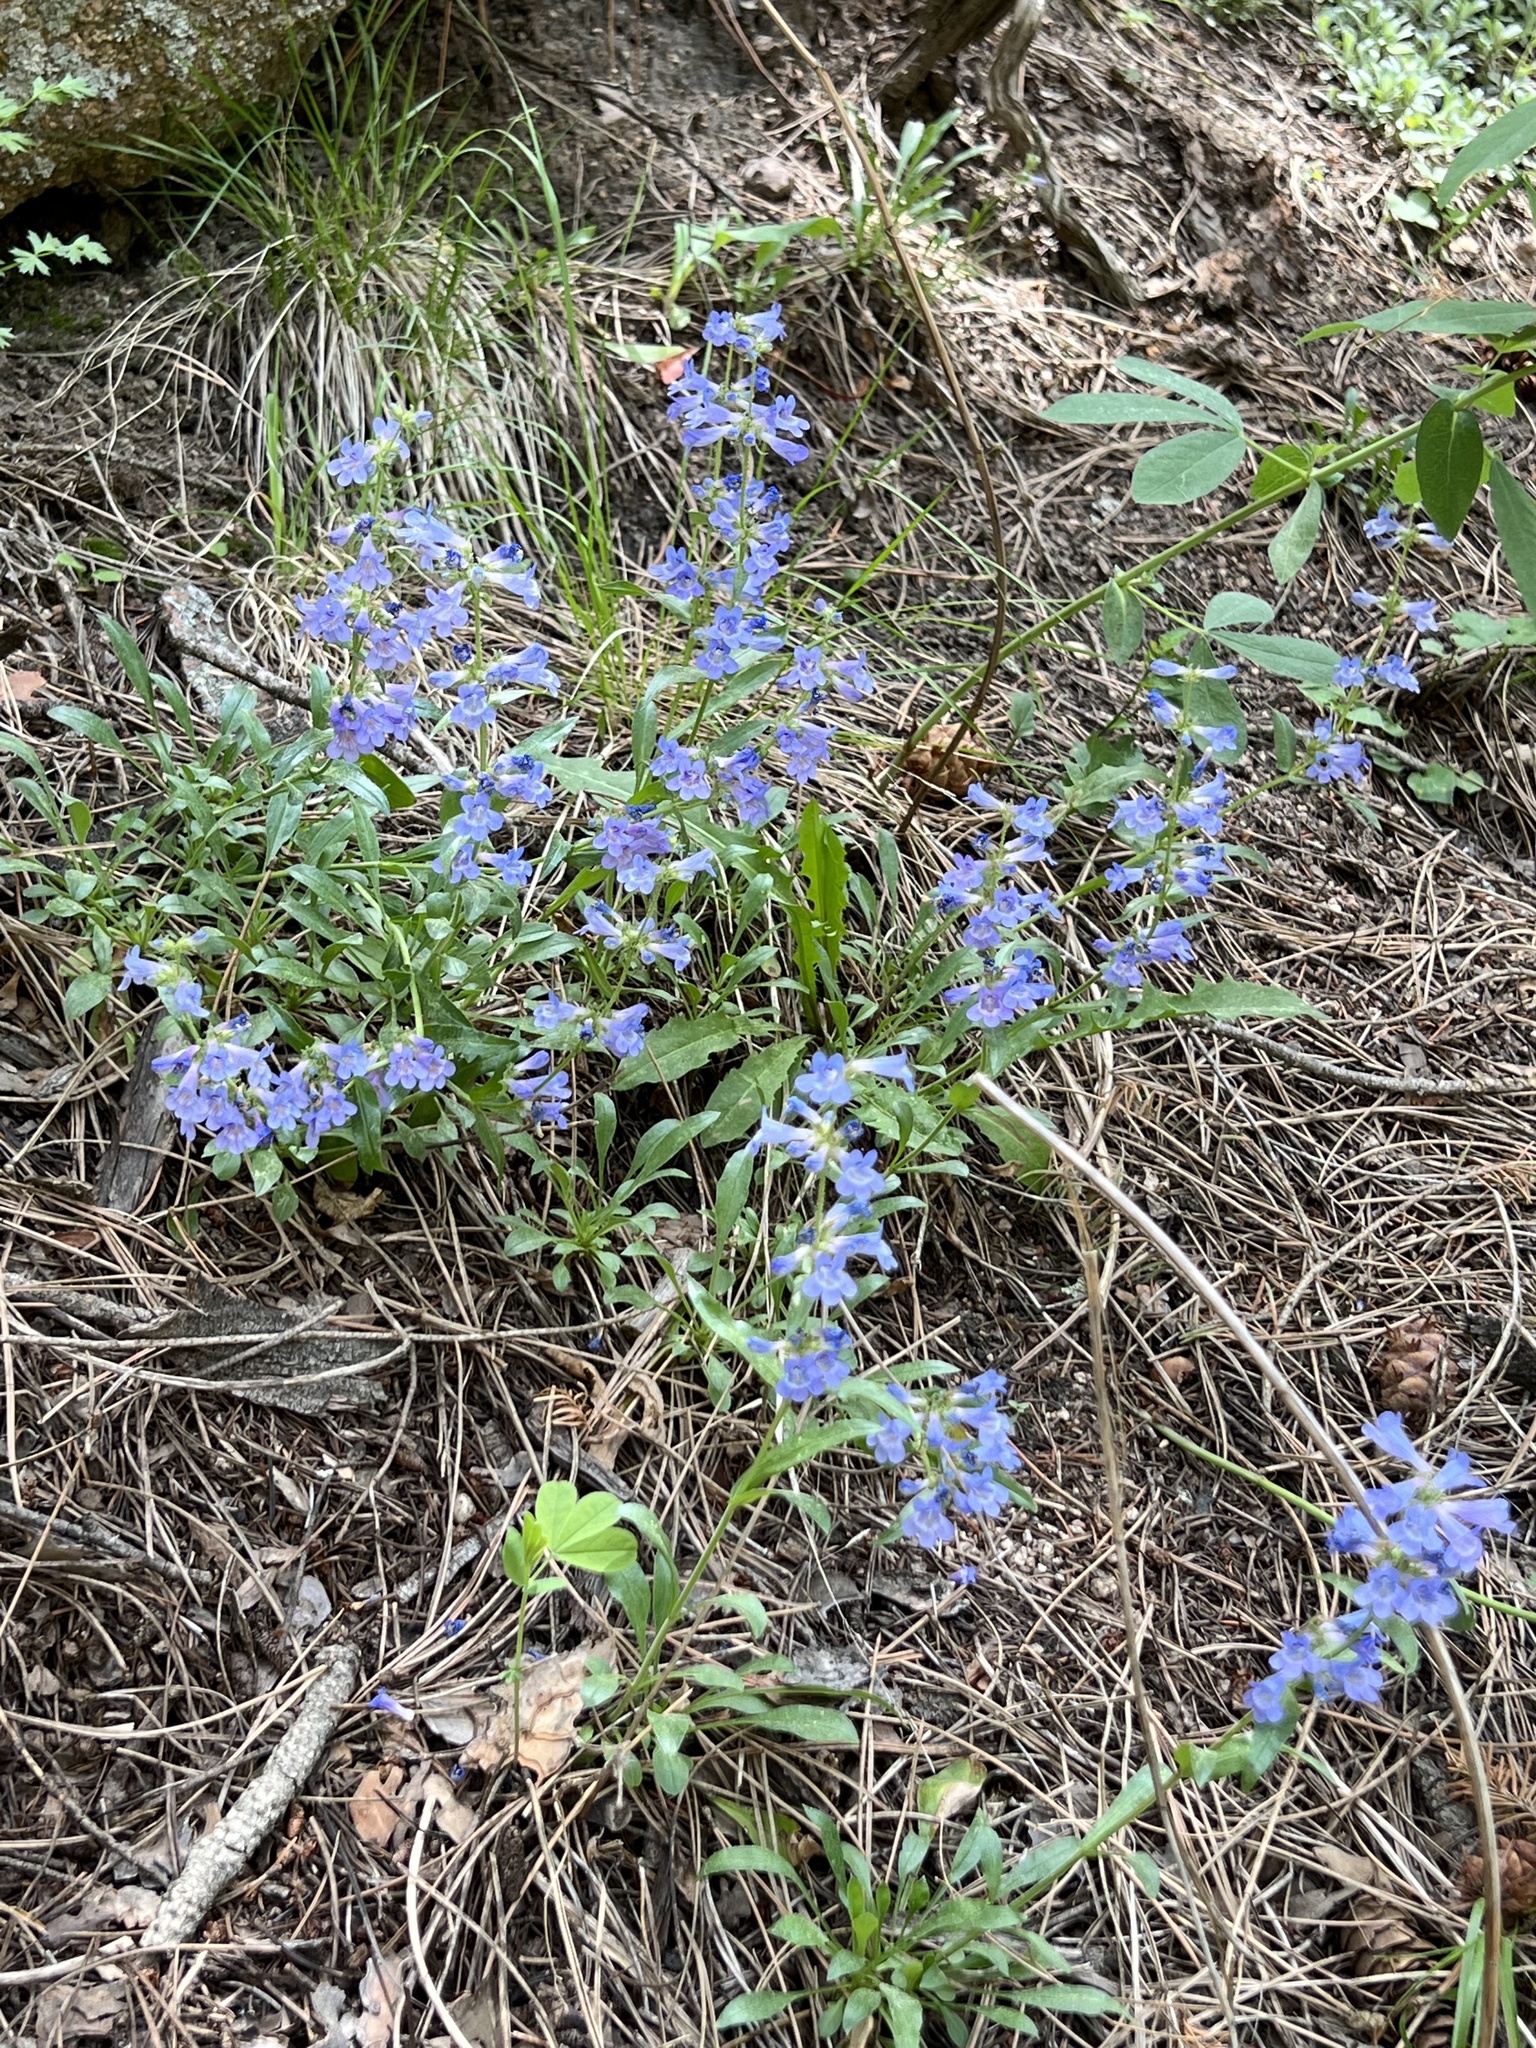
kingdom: Plantae
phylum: Tracheophyta
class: Magnoliopsida
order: Lamiales
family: Plantaginaceae
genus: Penstemon
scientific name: Penstemon virens
